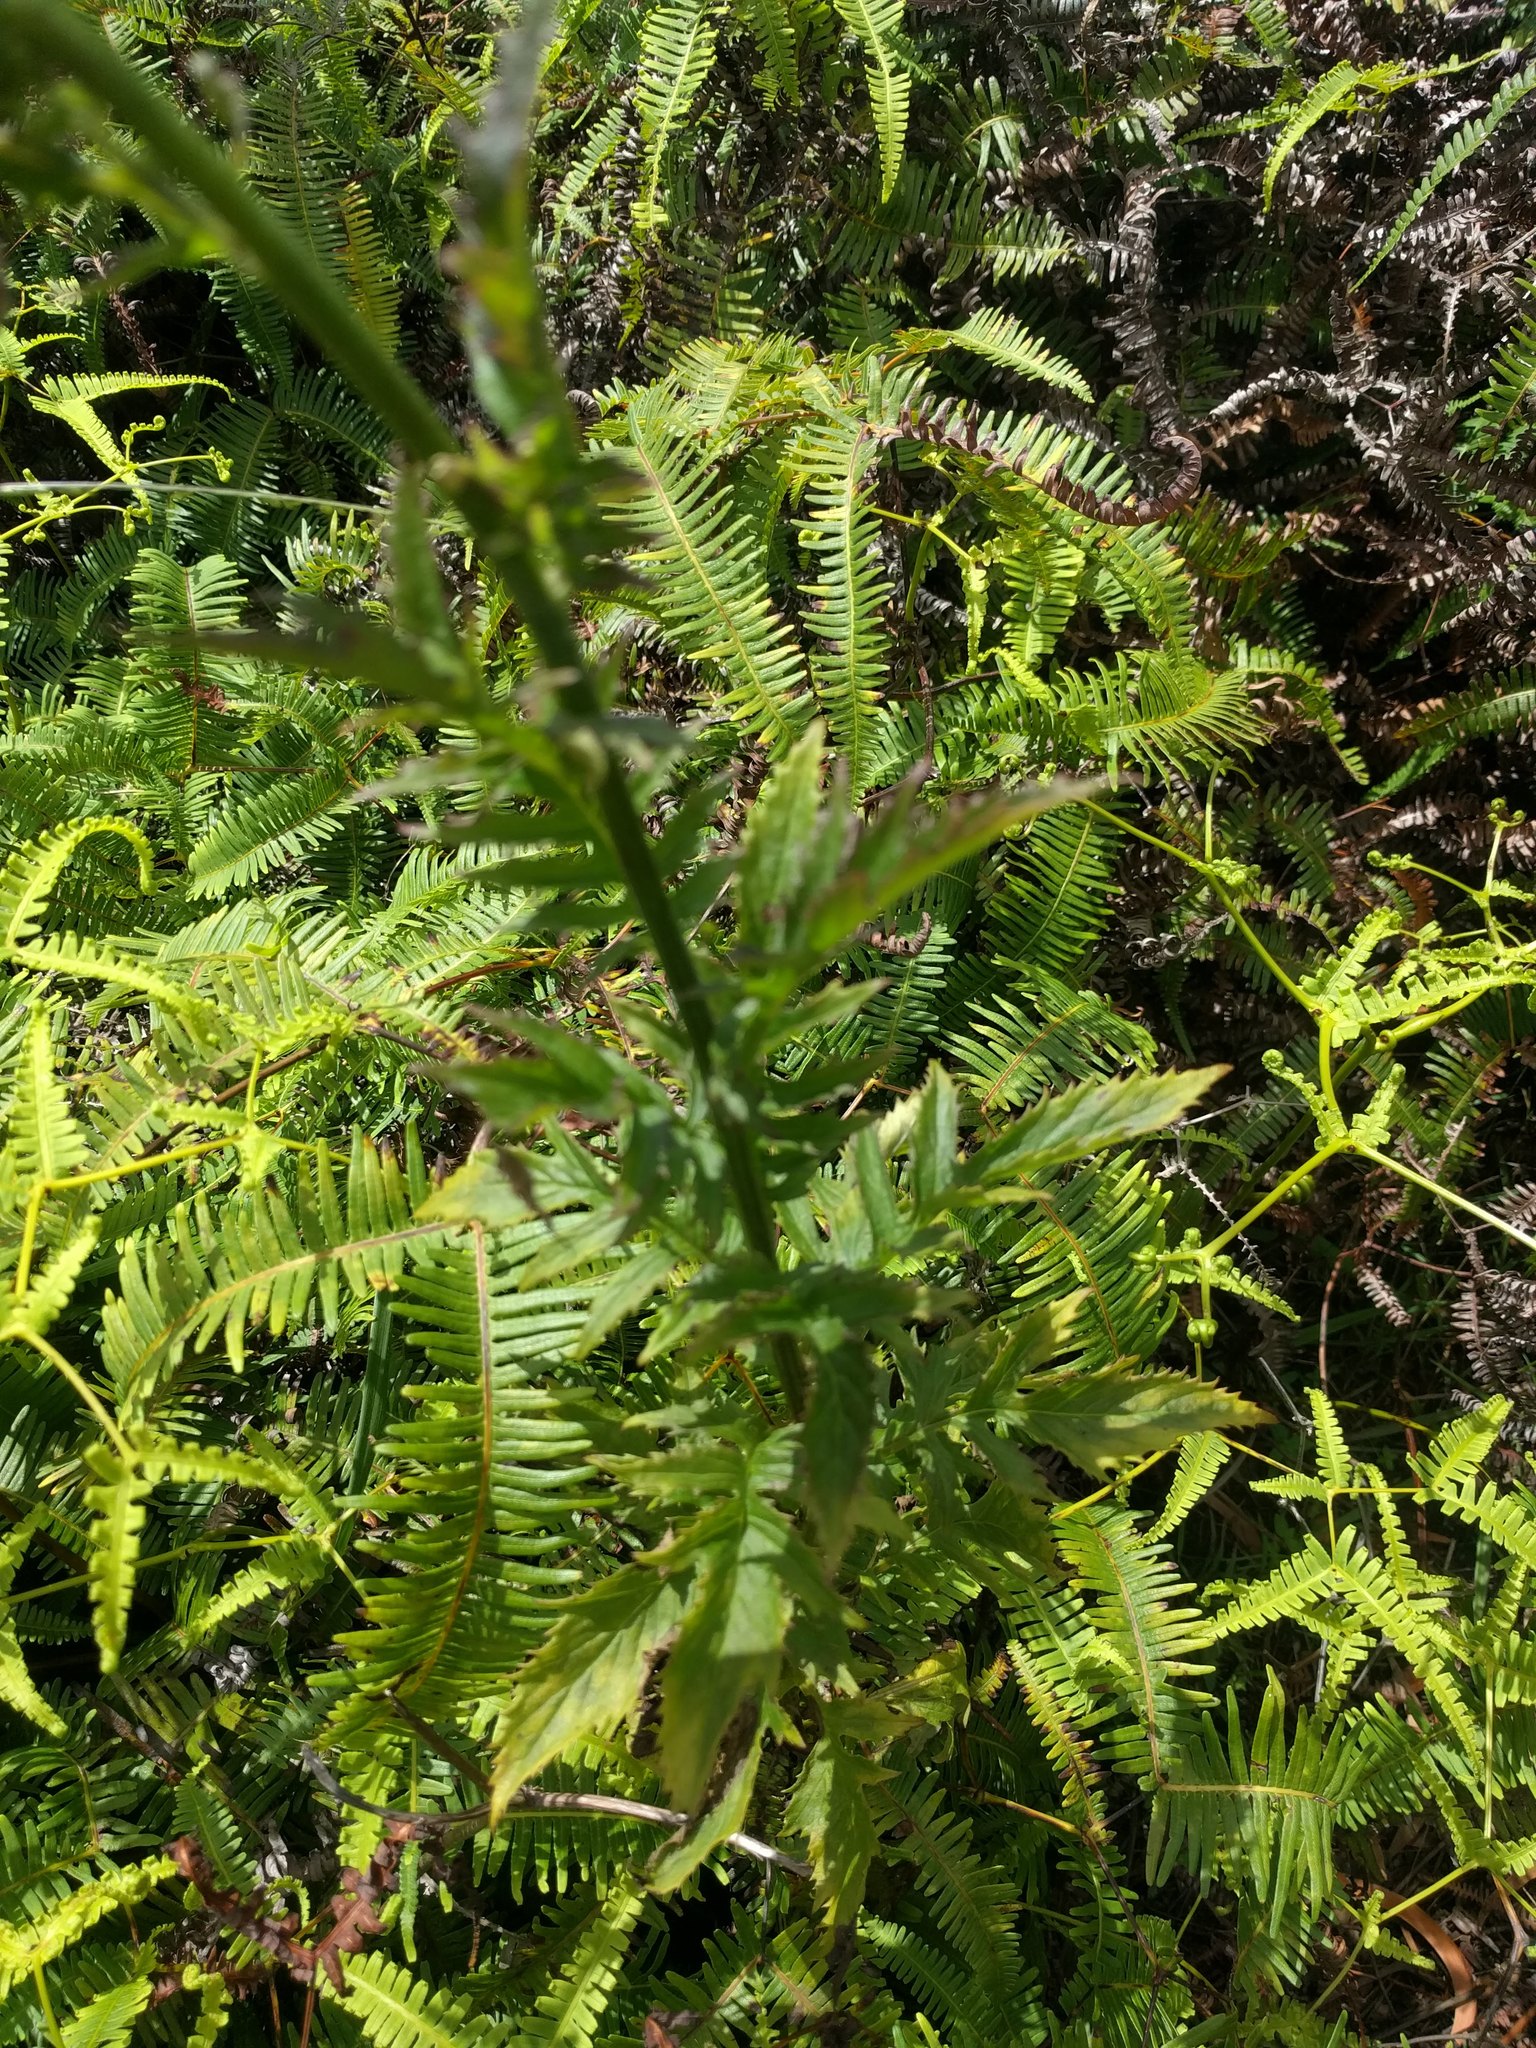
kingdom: Plantae
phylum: Tracheophyta
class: Magnoliopsida
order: Asterales
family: Asteraceae
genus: Erechtites
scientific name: Erechtites valerianifolius
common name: Tropical burnweed
